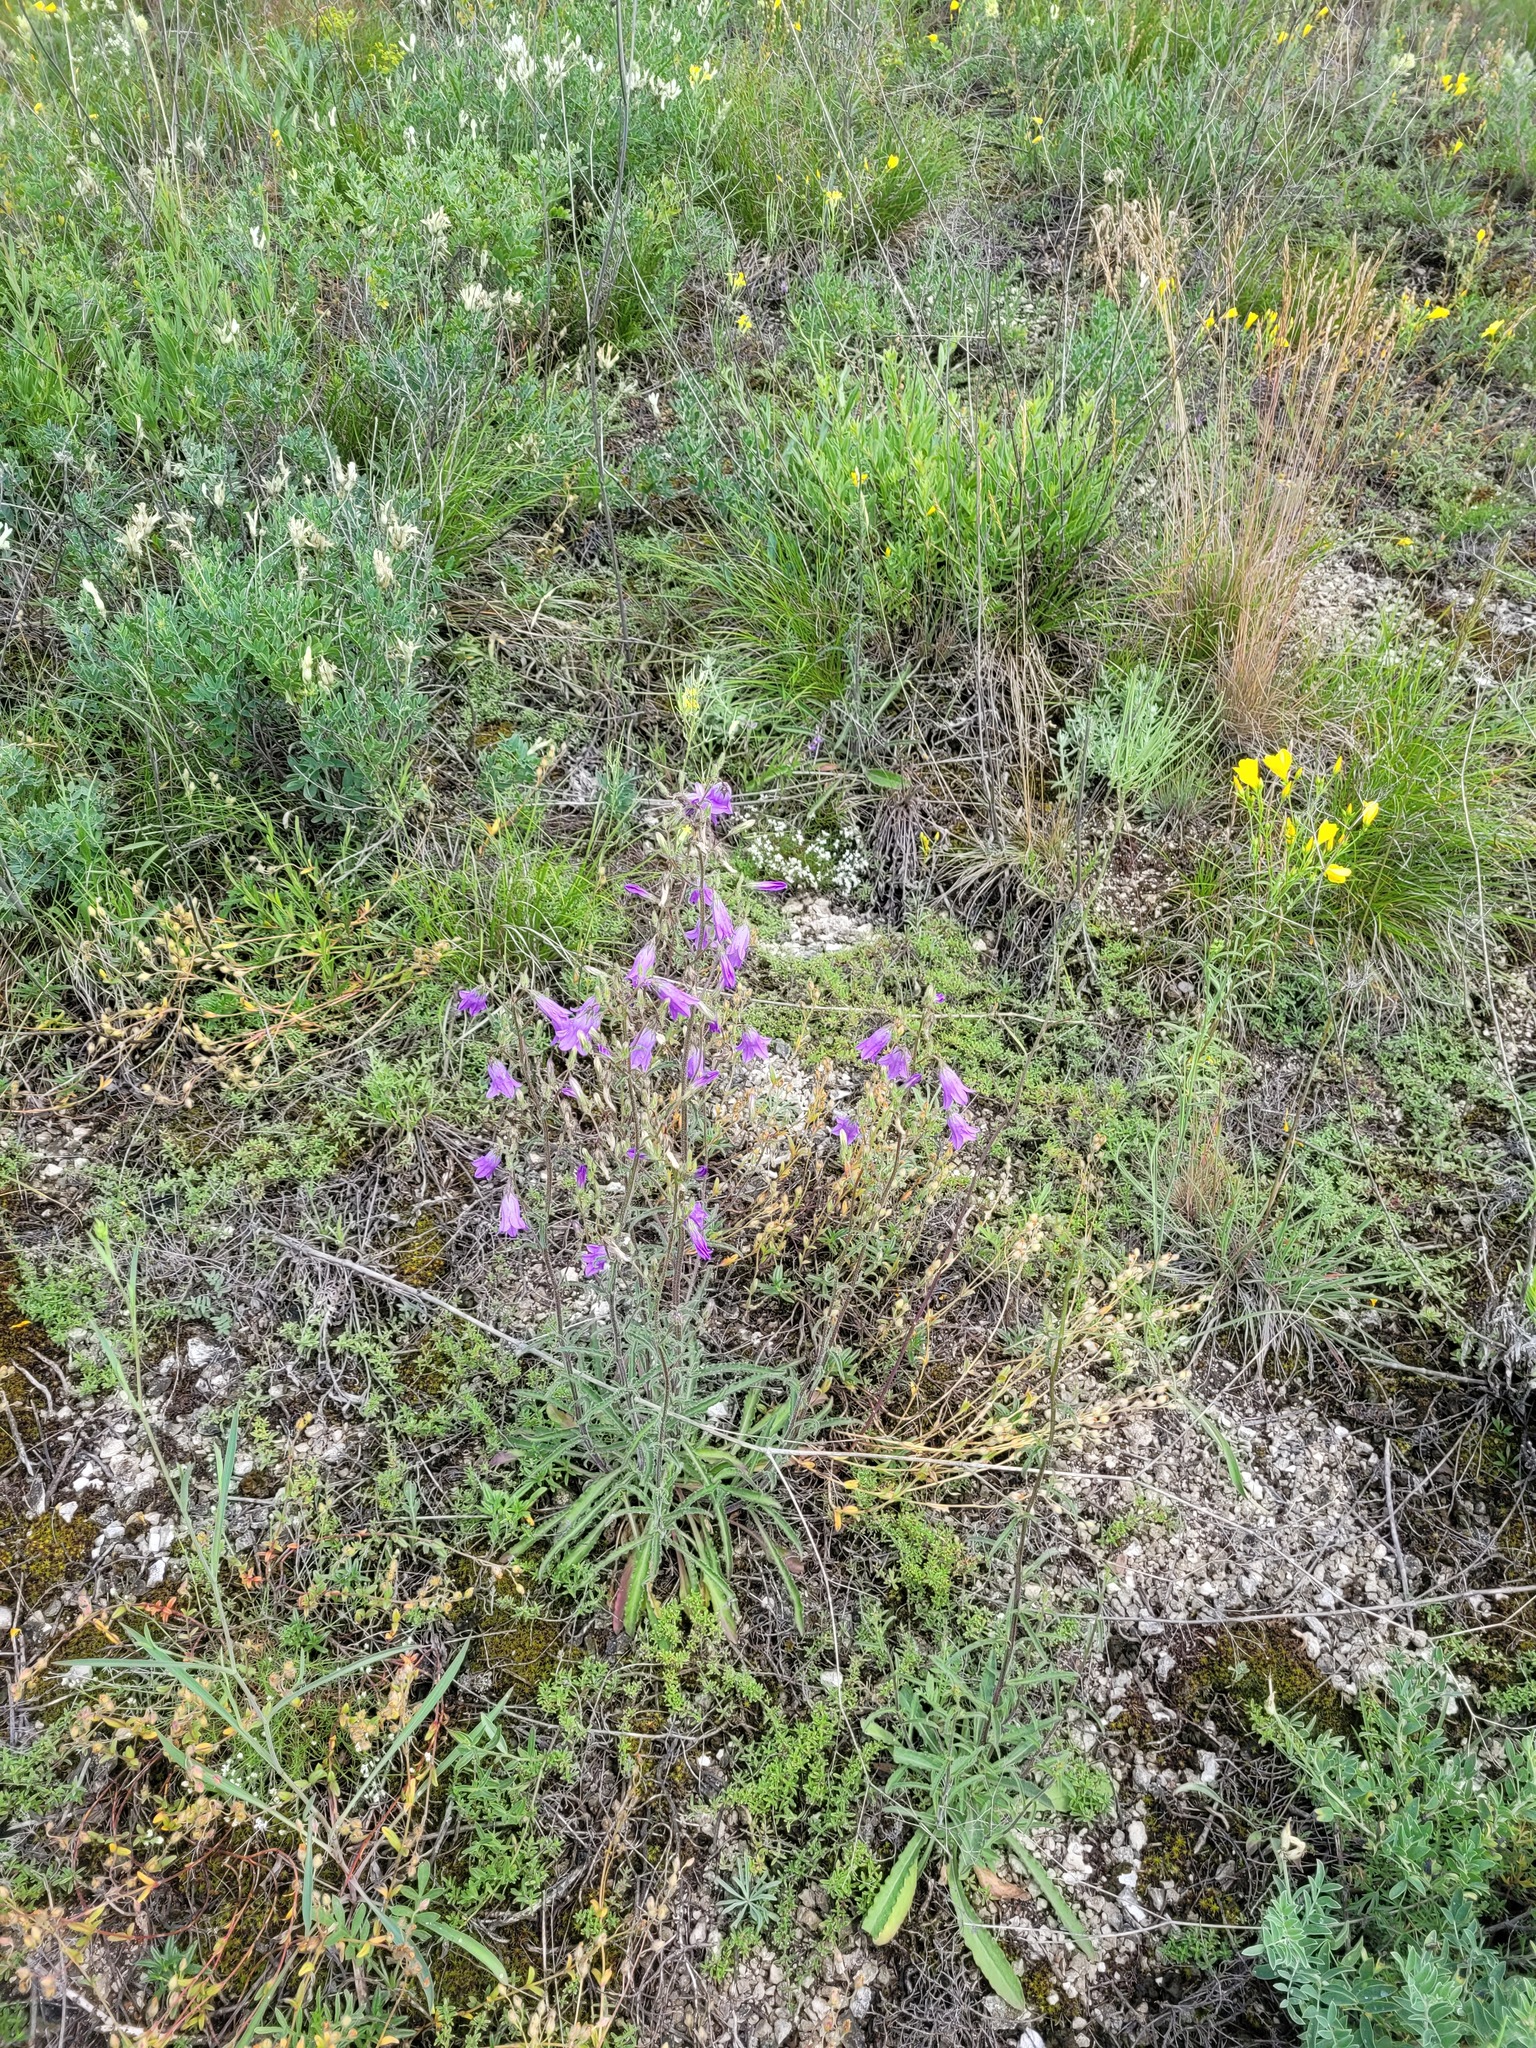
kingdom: Plantae
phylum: Tracheophyta
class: Magnoliopsida
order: Asterales
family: Campanulaceae
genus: Campanula
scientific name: Campanula sibirica
